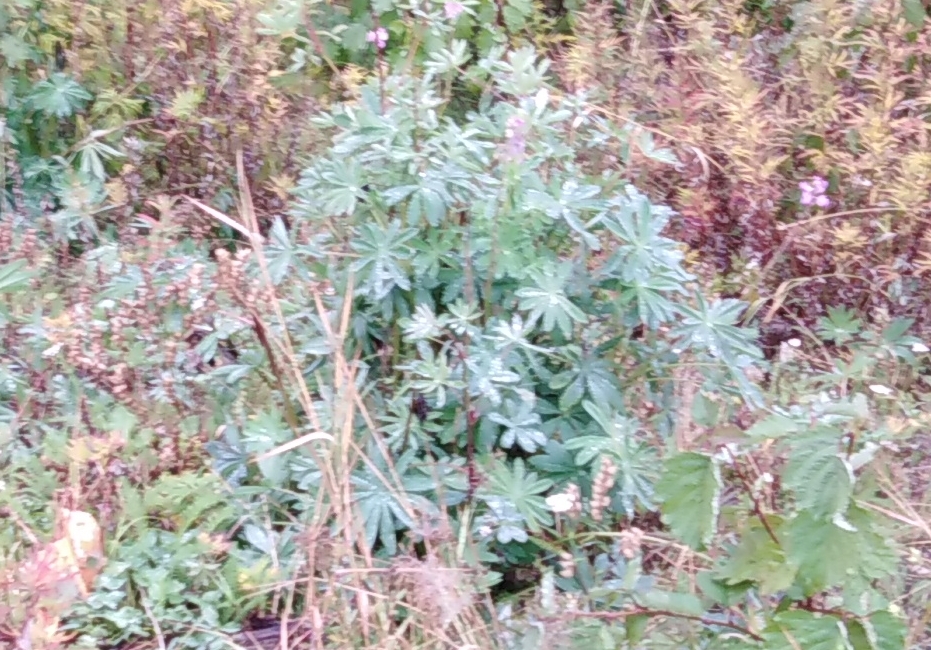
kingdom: Plantae
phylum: Tracheophyta
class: Magnoliopsida
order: Fabales
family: Fabaceae
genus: Lupinus
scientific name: Lupinus polyphyllus
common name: Garden lupin
